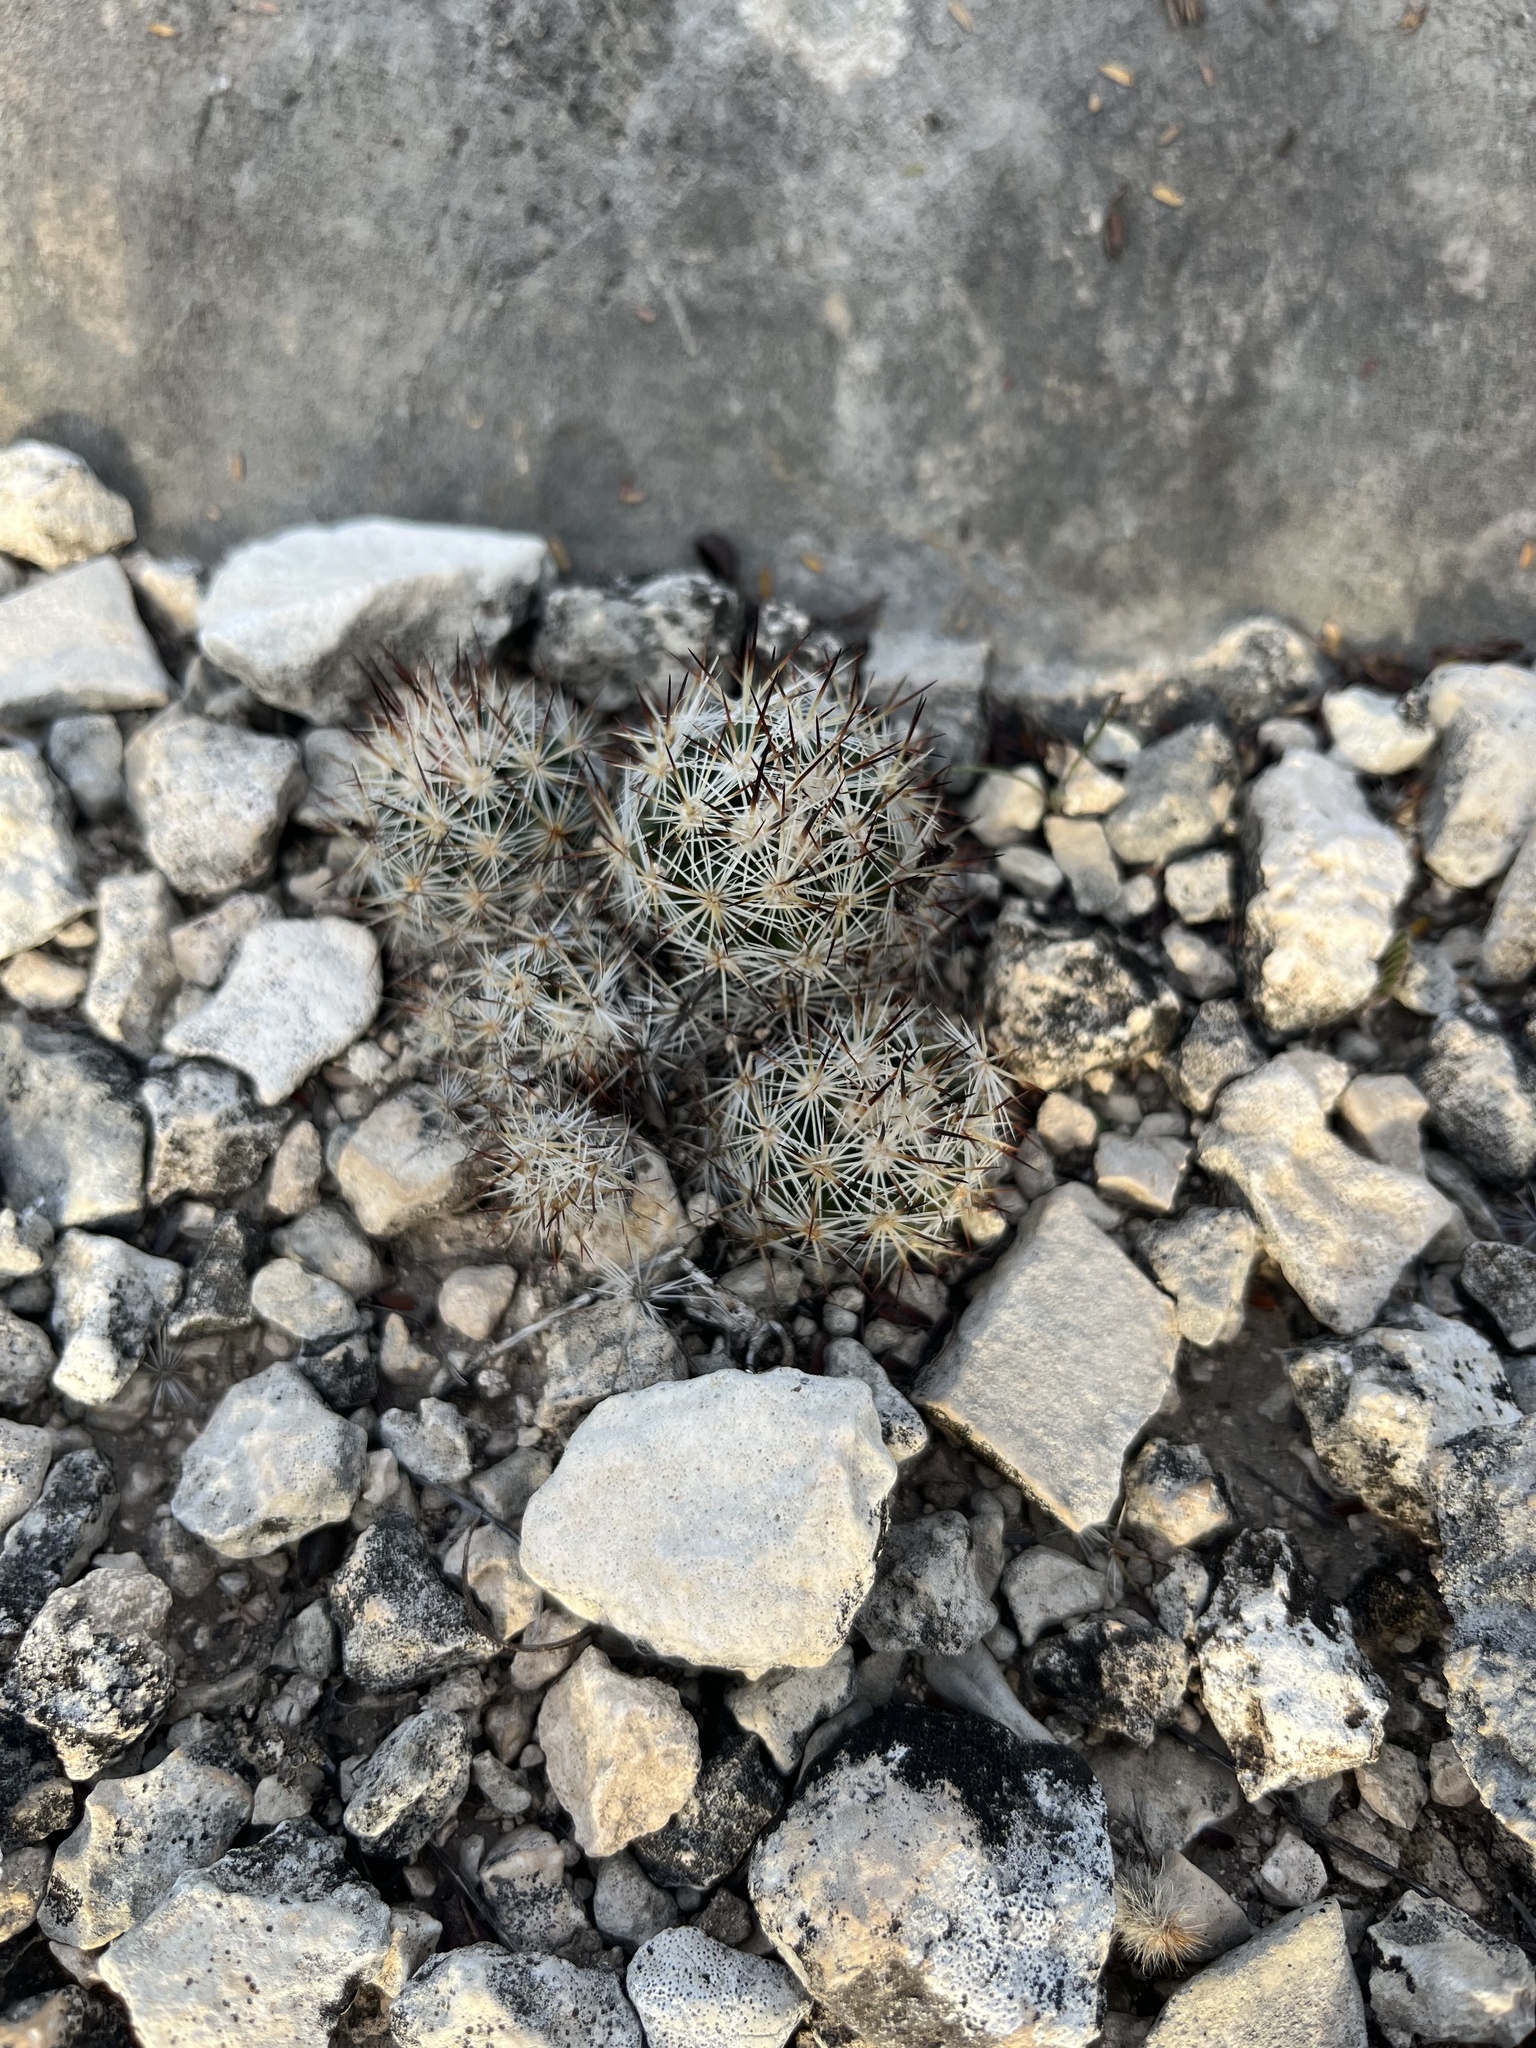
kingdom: Plantae
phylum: Tracheophyta
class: Magnoliopsida
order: Caryophyllales
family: Cactaceae
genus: Pelecyphora
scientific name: Pelecyphora emskoetteriana
